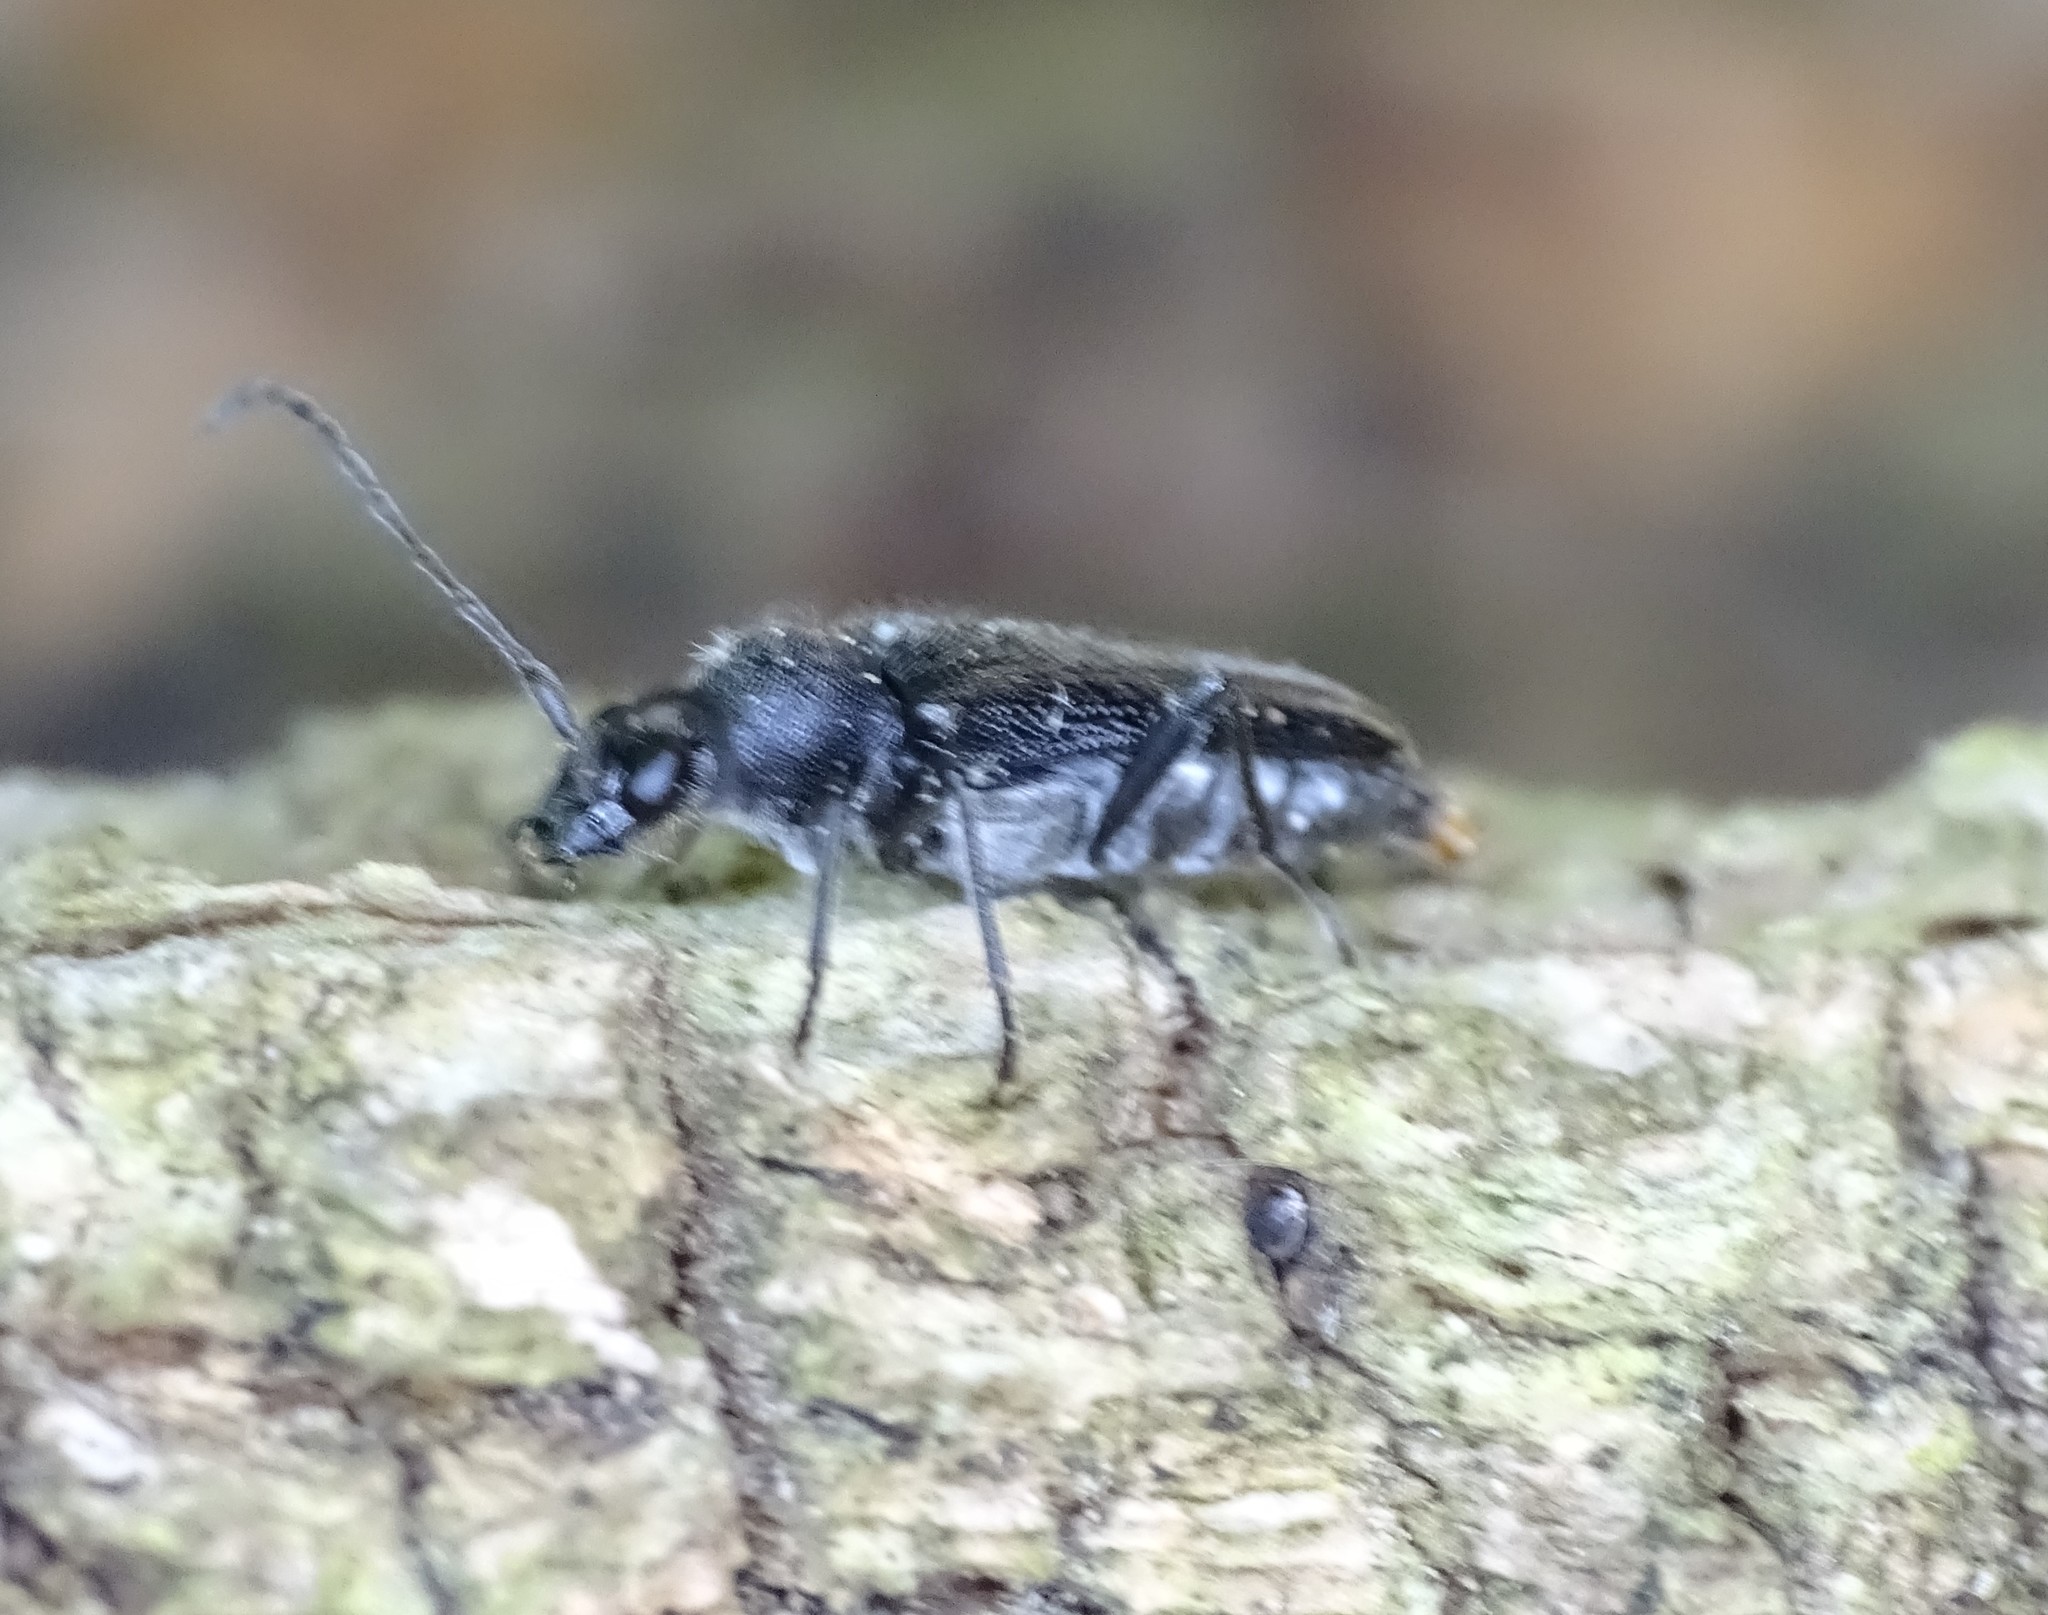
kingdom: Animalia
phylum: Arthropoda
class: Insecta
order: Coleoptera
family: Cerambycidae
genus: Anoplodera
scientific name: Anoplodera pubera
